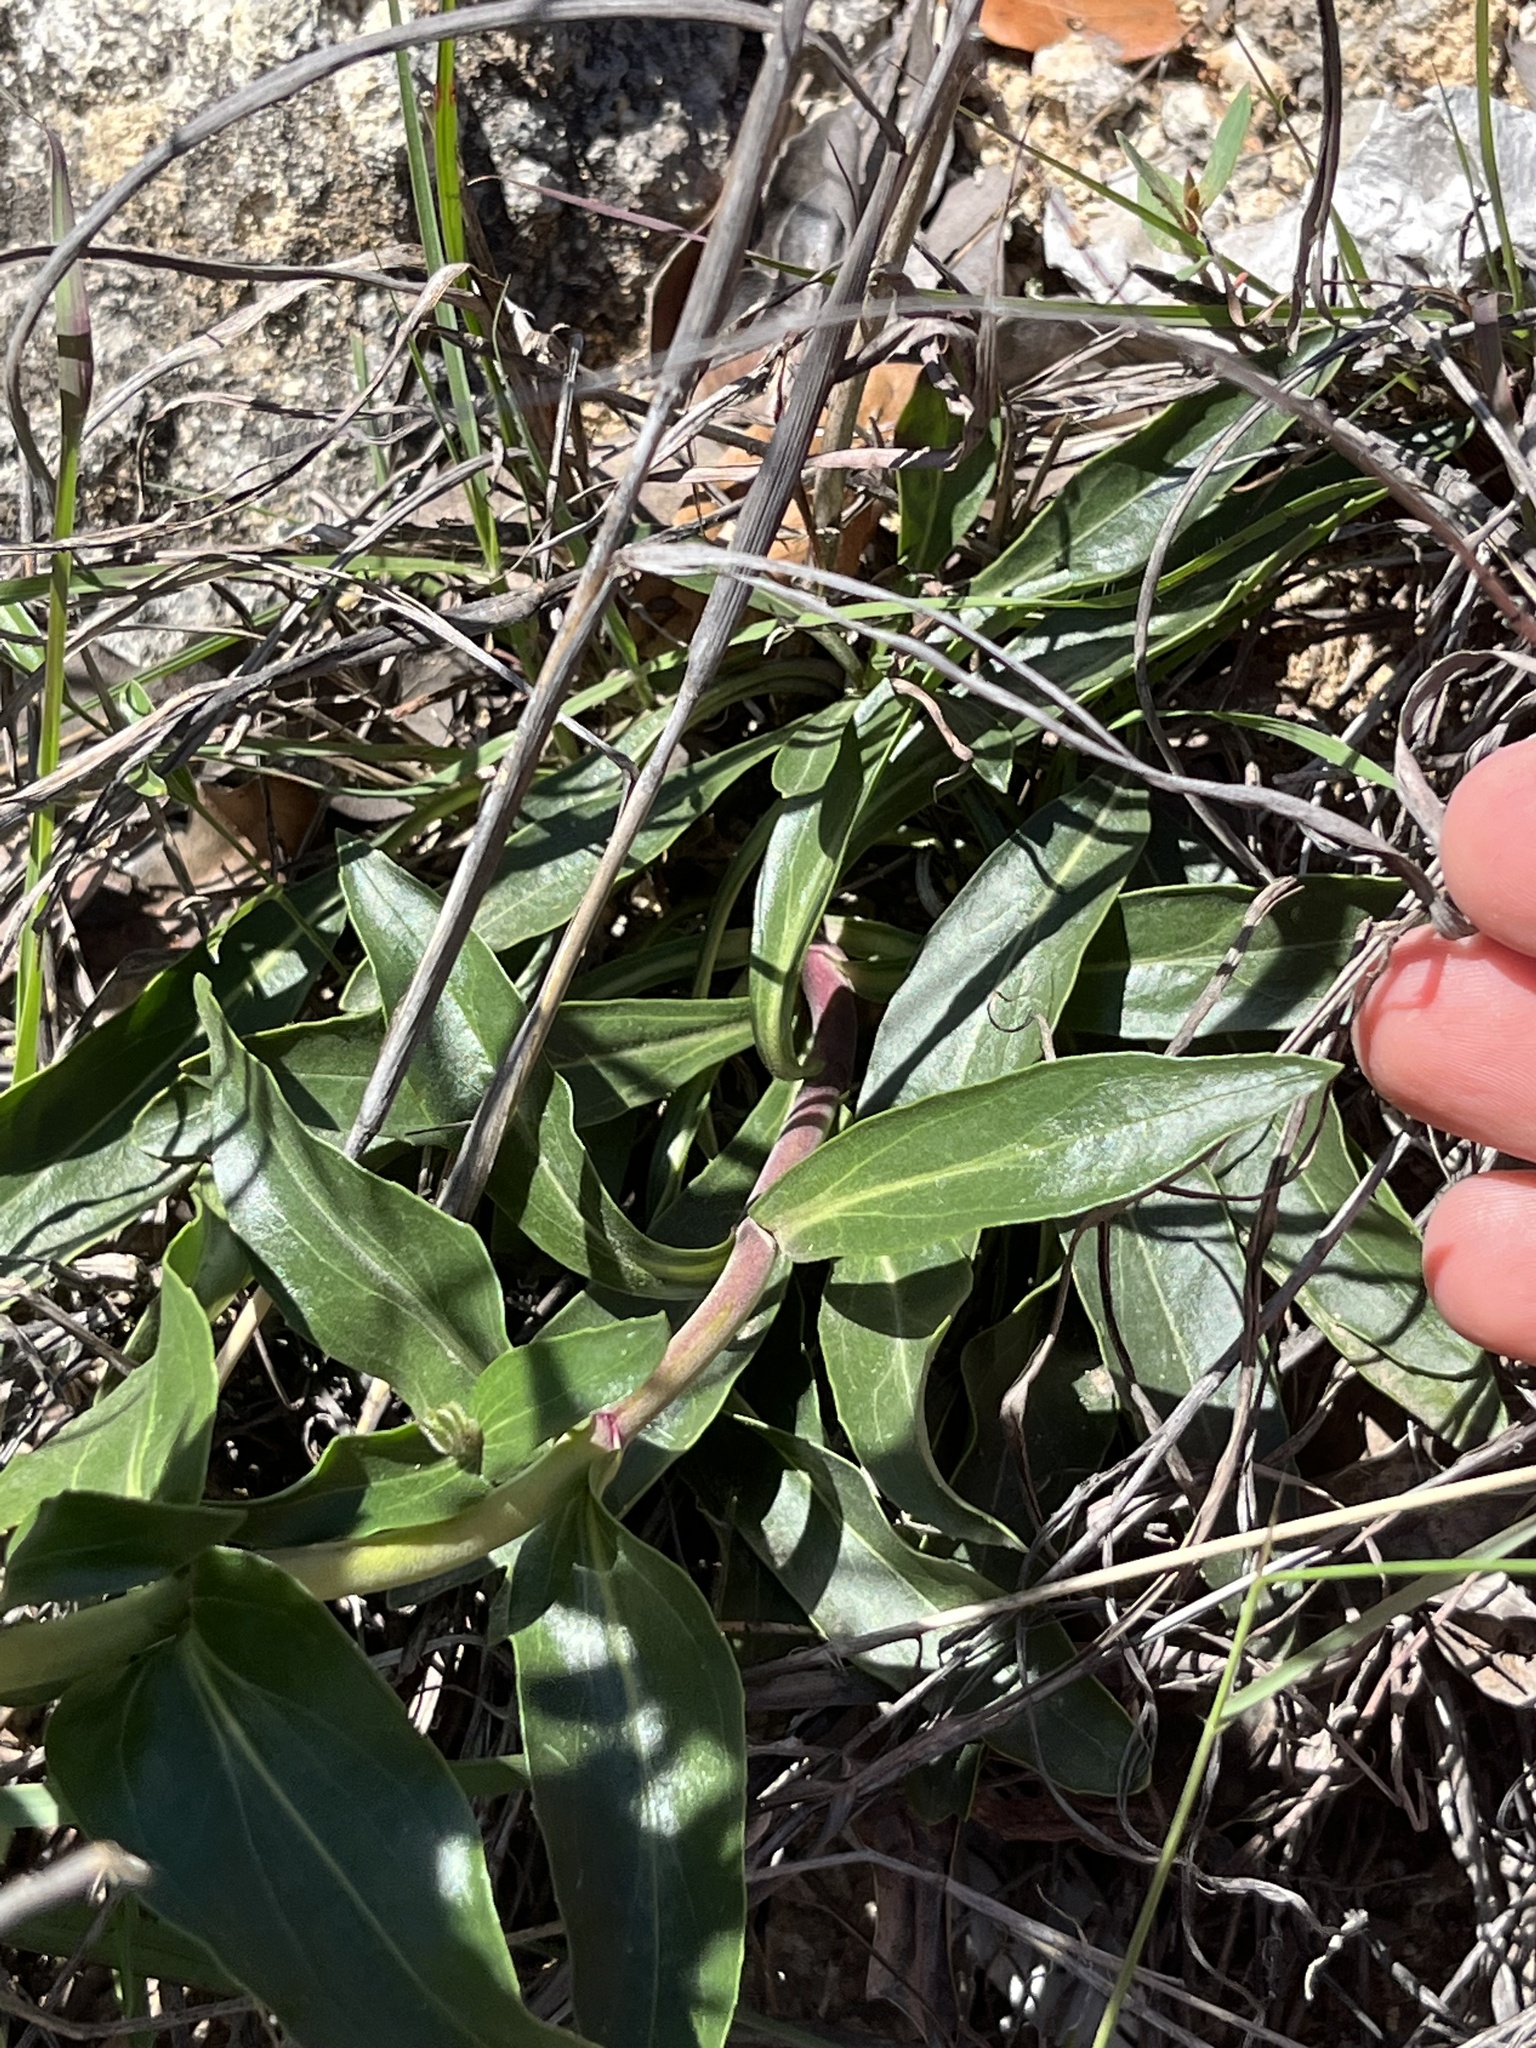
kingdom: Plantae
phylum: Tracheophyta
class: Magnoliopsida
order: Lamiales
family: Plantaginaceae
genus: Penstemon
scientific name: Penstemon triflorus
